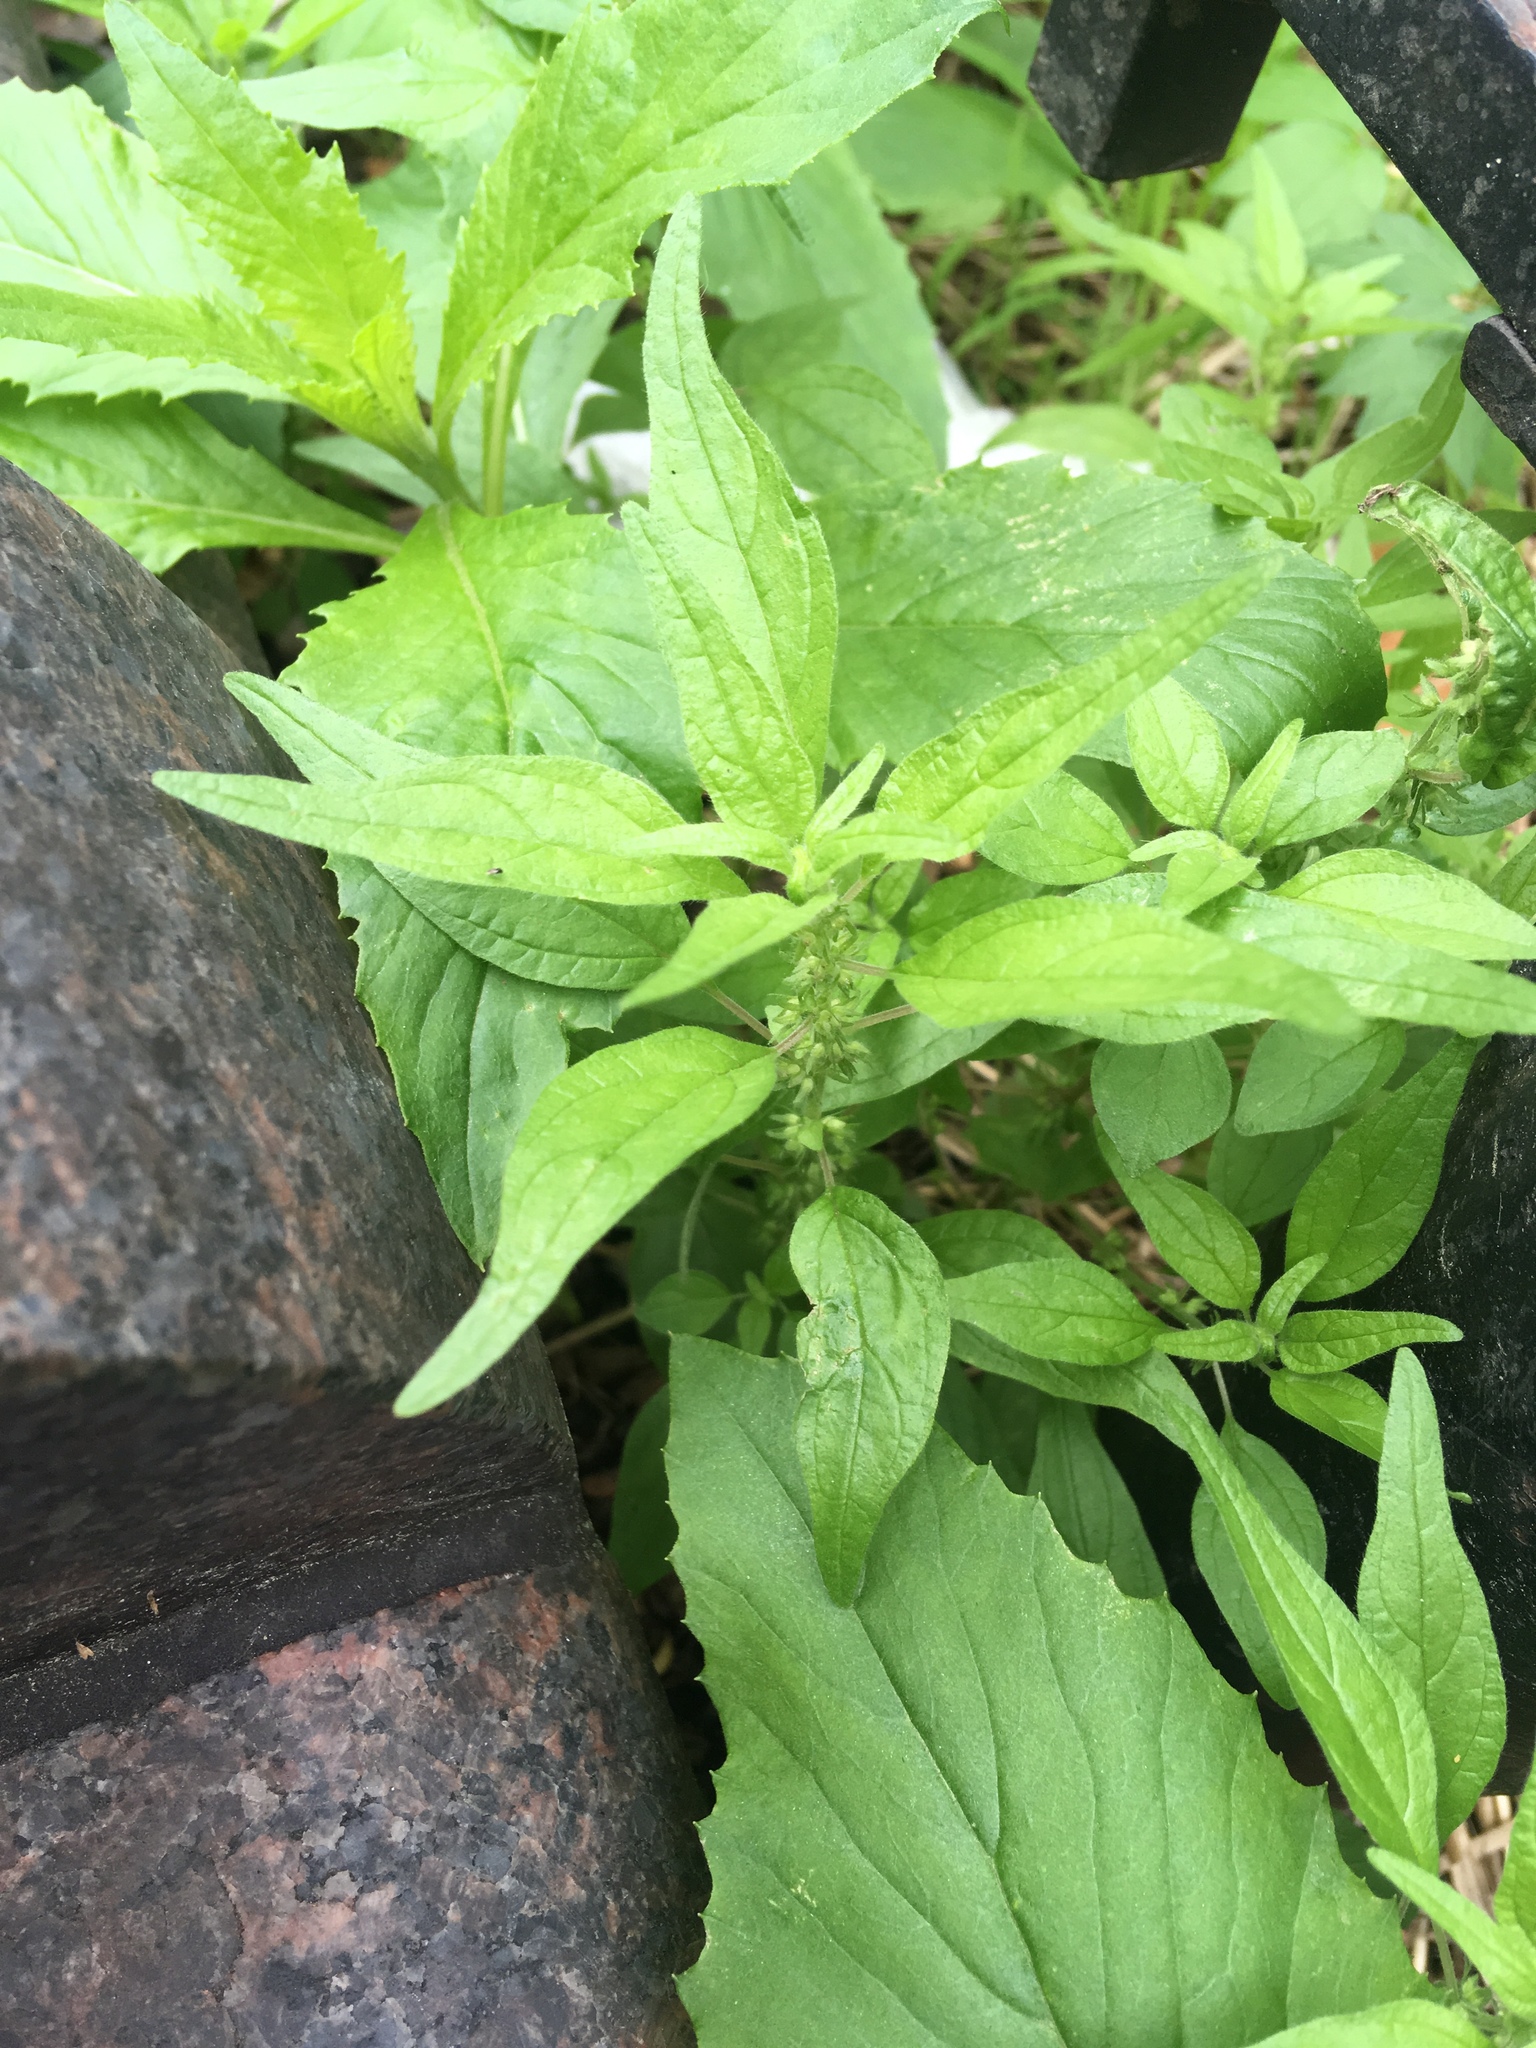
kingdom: Plantae
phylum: Tracheophyta
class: Magnoliopsida
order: Rosales
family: Urticaceae
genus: Parietaria
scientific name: Parietaria pensylvanica
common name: Pennsylvania pellitory
